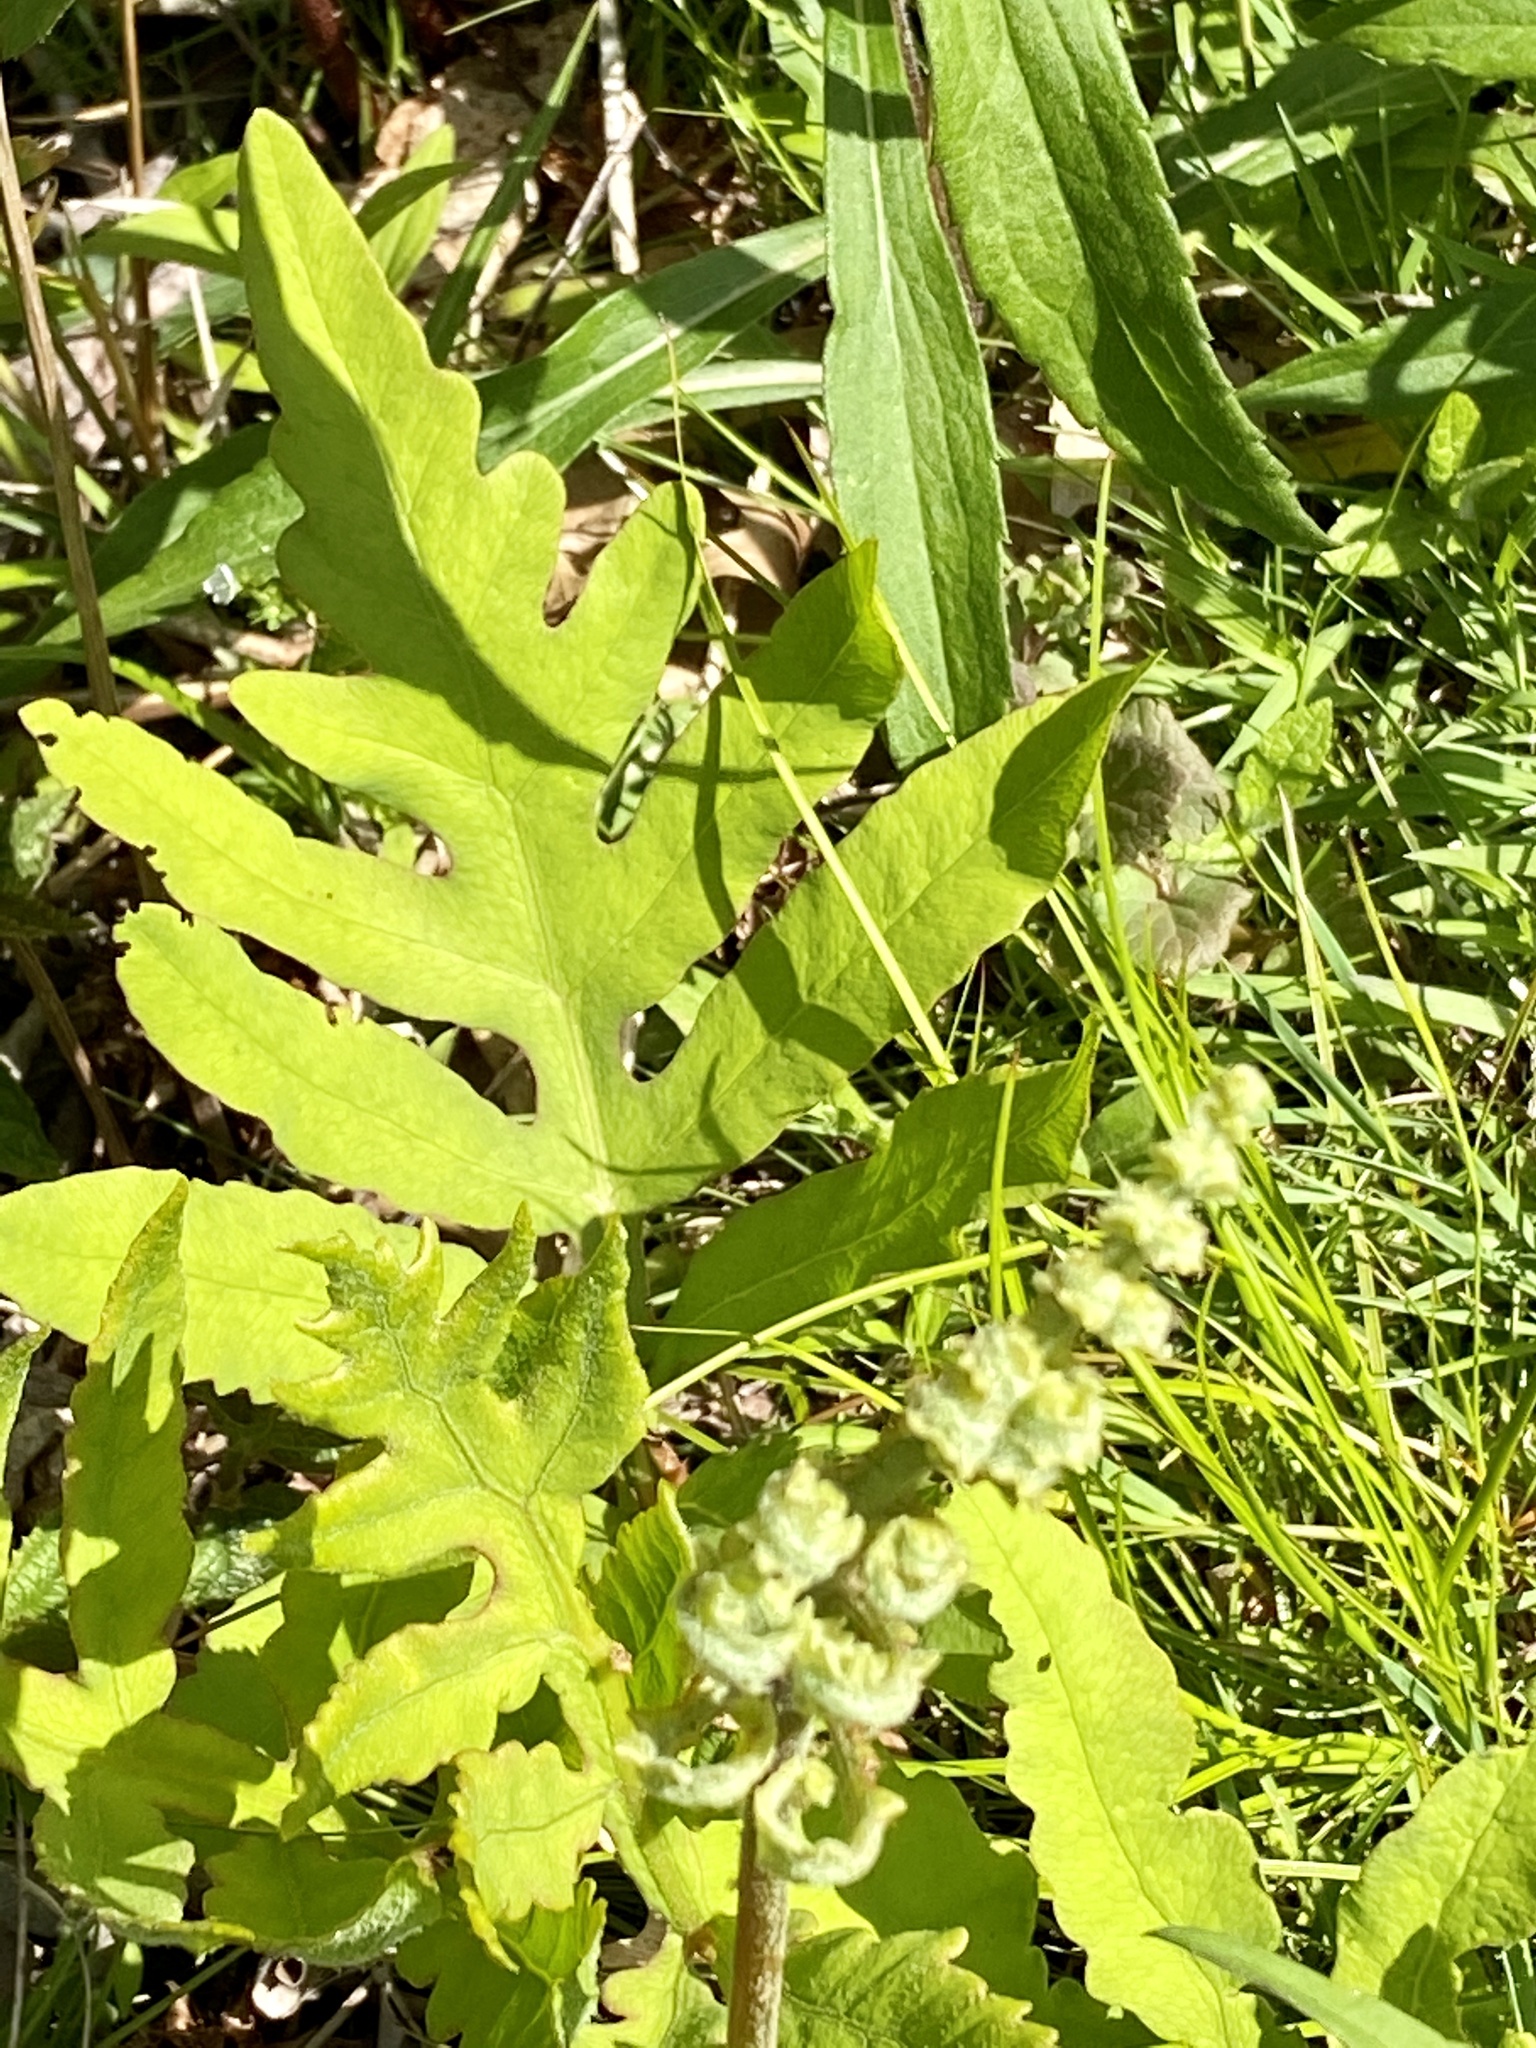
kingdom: Plantae
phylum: Tracheophyta
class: Polypodiopsida
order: Polypodiales
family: Onocleaceae
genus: Onoclea
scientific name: Onoclea sensibilis
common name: Sensitive fern
